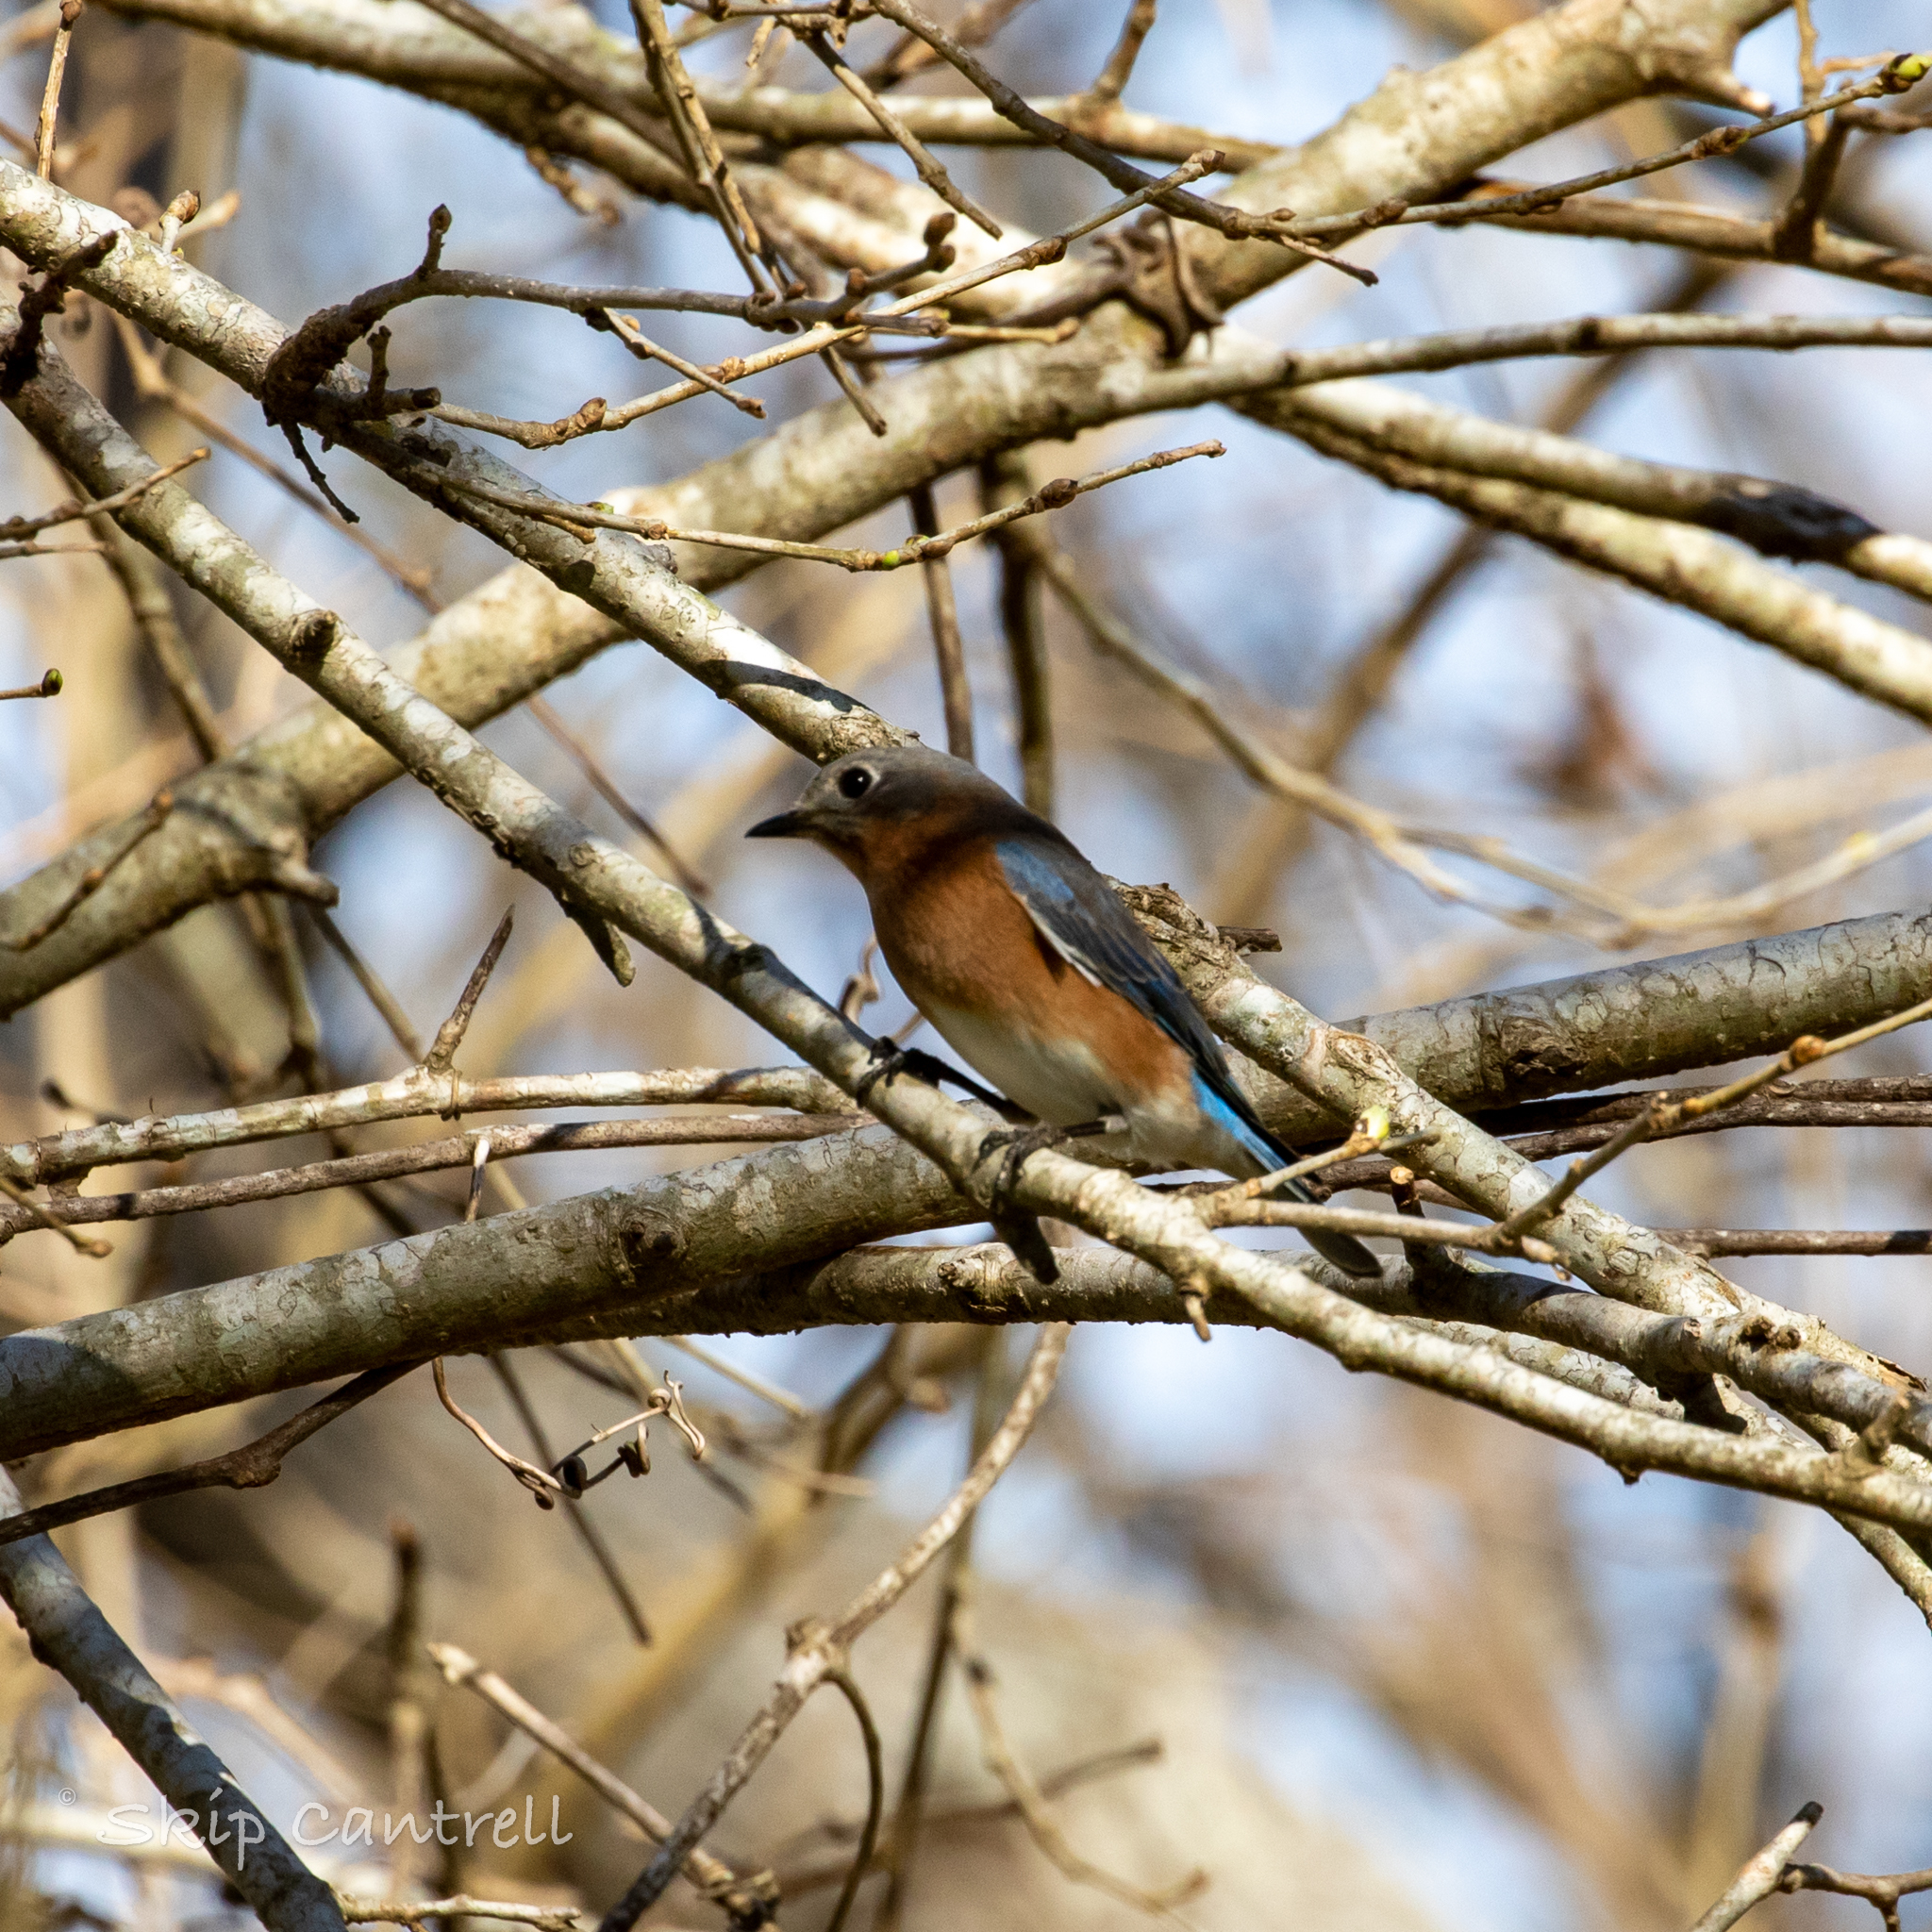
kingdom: Animalia
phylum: Chordata
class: Aves
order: Passeriformes
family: Turdidae
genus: Sialia
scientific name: Sialia sialis
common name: Eastern bluebird
